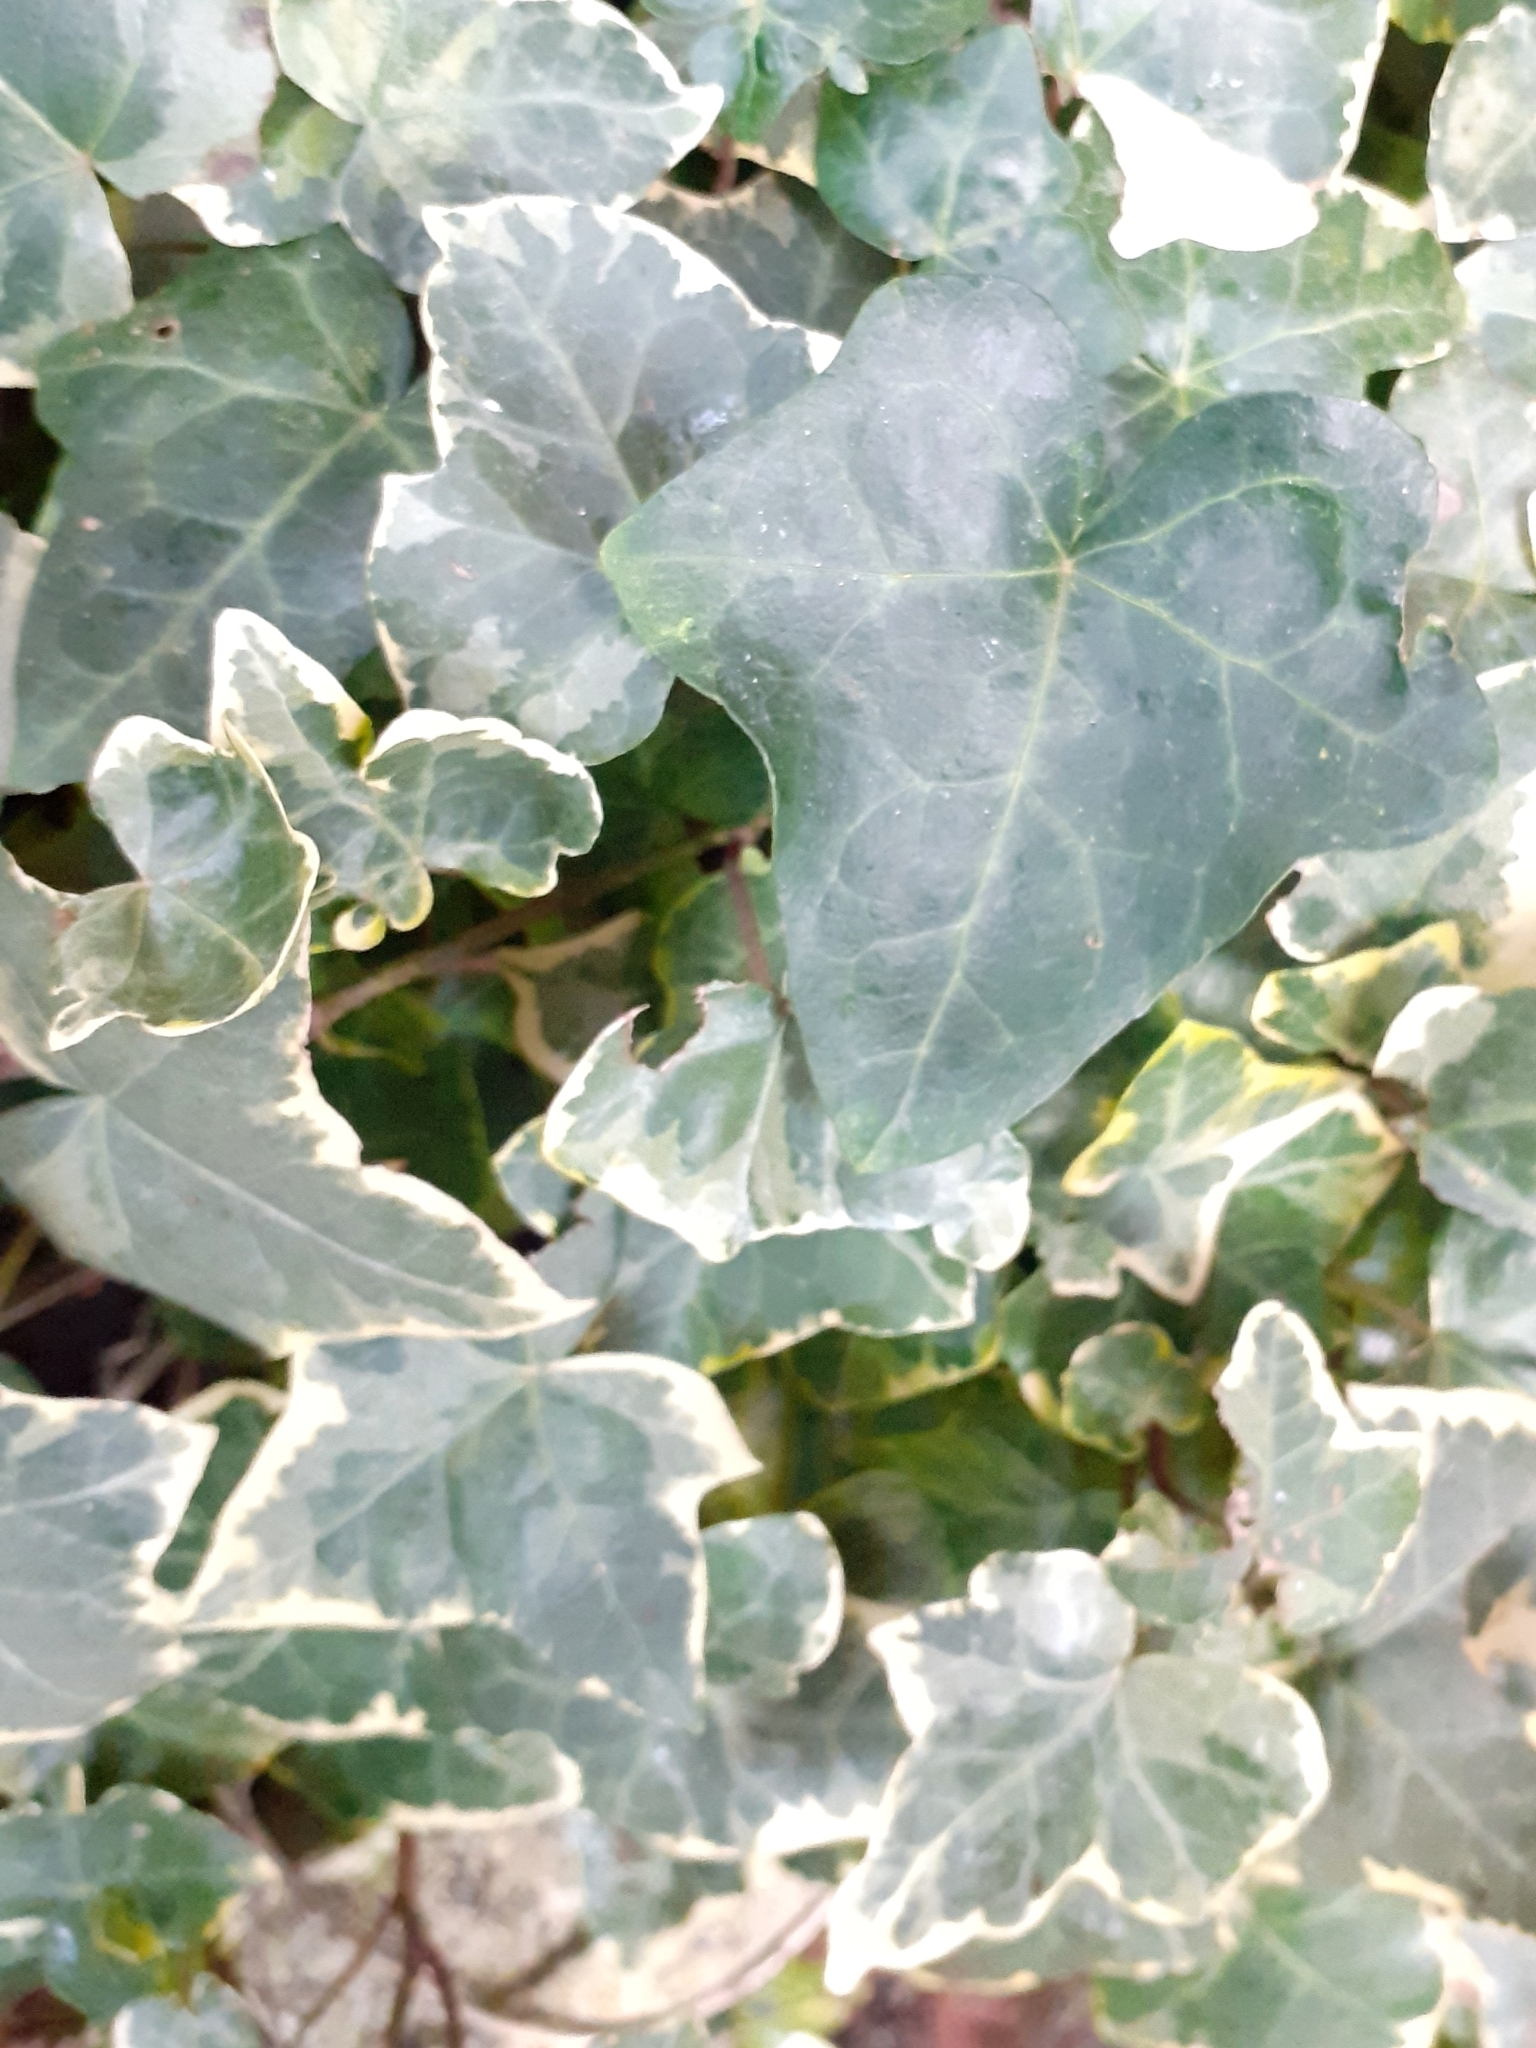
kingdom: Plantae
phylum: Tracheophyta
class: Magnoliopsida
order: Apiales
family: Araliaceae
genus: Hedera
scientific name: Hedera helix
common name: Ivy
